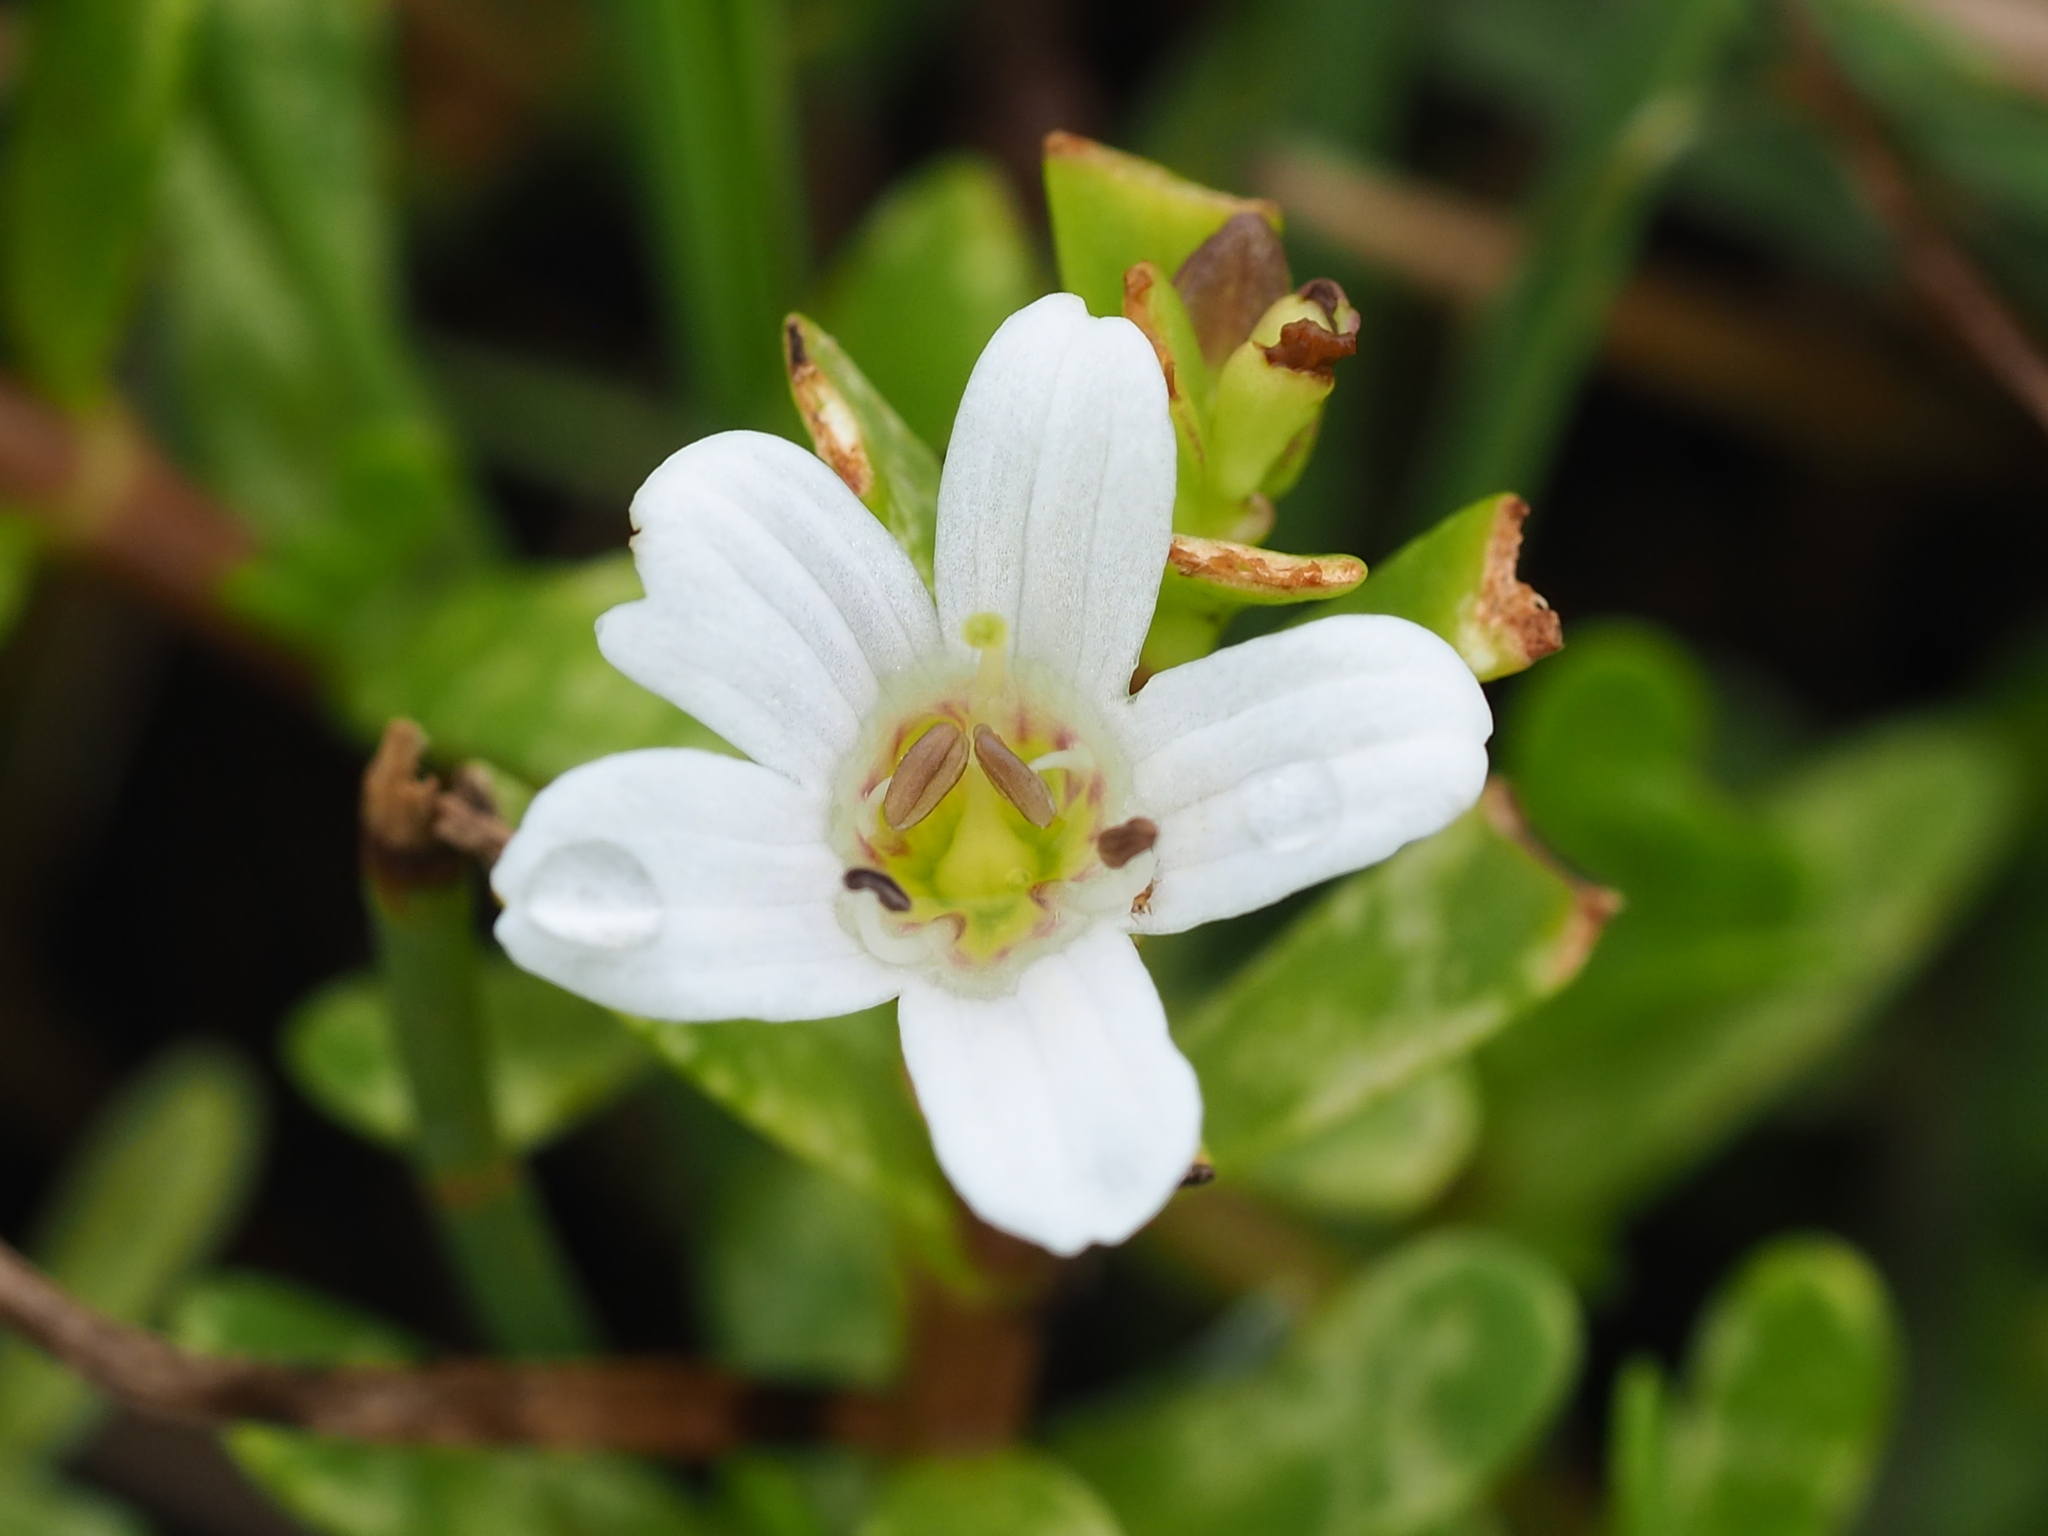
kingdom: Plantae
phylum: Tracheophyta
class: Magnoliopsida
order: Lamiales
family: Plantaginaceae
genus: Bacopa
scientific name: Bacopa monnieri
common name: Indian-pennywort
